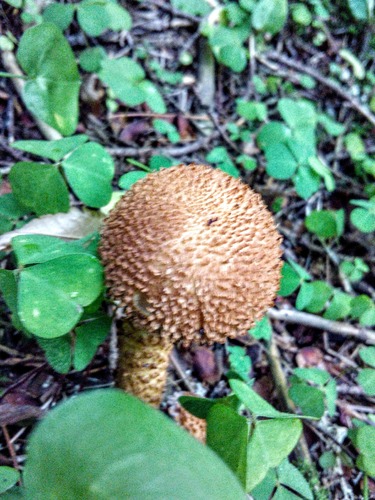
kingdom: Fungi
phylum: Basidiomycota
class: Agaricomycetes
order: Agaricales
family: Strophariaceae
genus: Pholiota
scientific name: Pholiota squarrosa
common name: Shaggy pholiota
